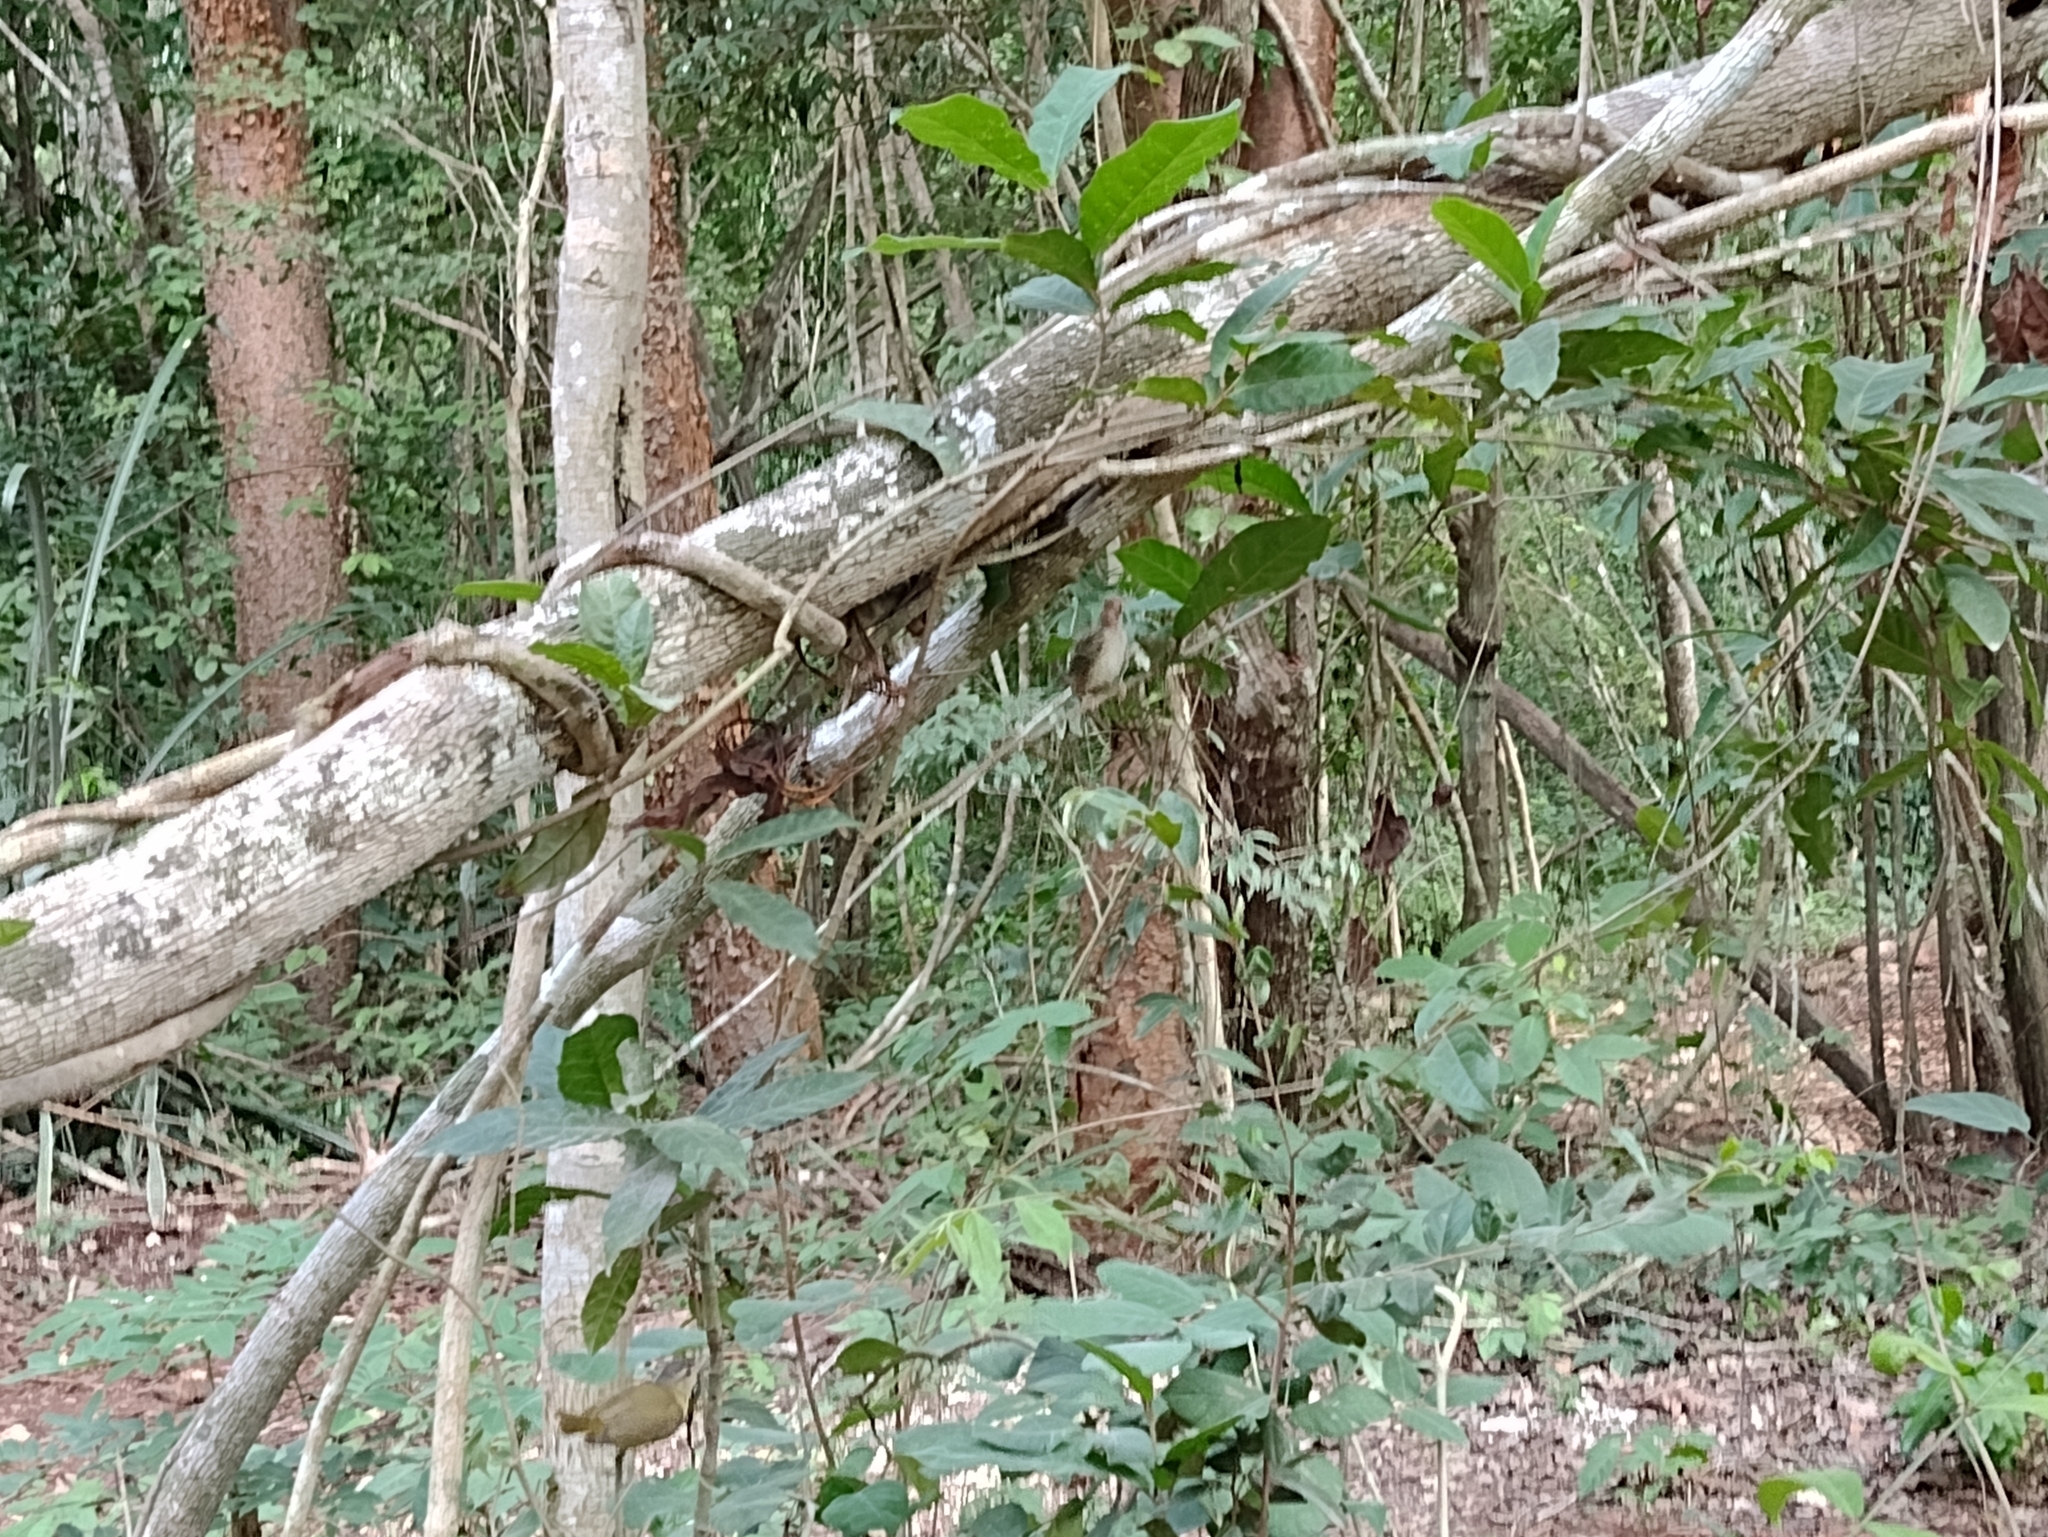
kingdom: Animalia
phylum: Chordata
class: Aves
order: Passeriformes
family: Vireonidae
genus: Vireo
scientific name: Vireo flavoviridis
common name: Yellow-green vireo
